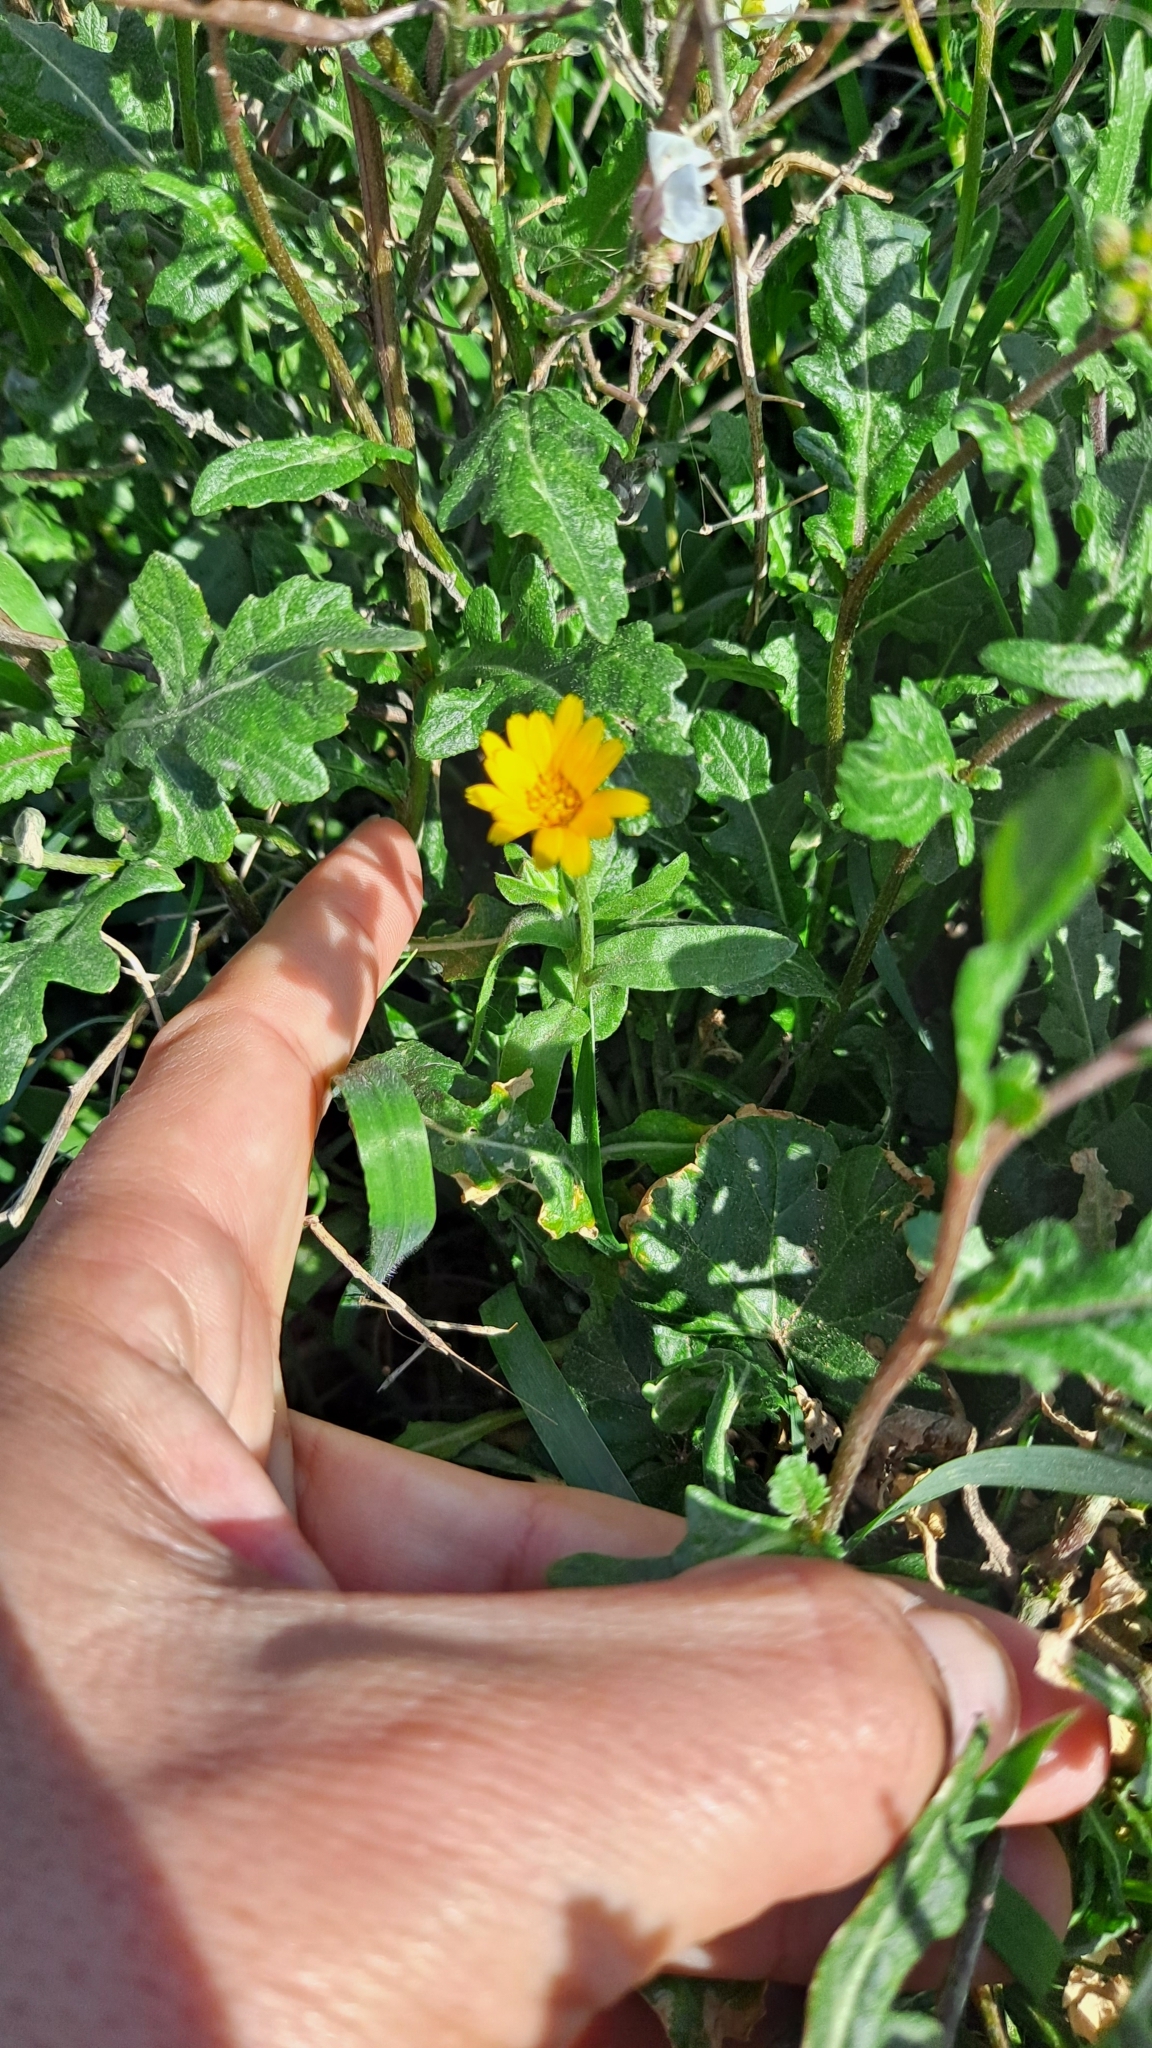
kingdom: Plantae
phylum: Tracheophyta
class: Magnoliopsida
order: Asterales
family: Asteraceae
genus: Calendula
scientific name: Calendula arvensis
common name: Field marigold
